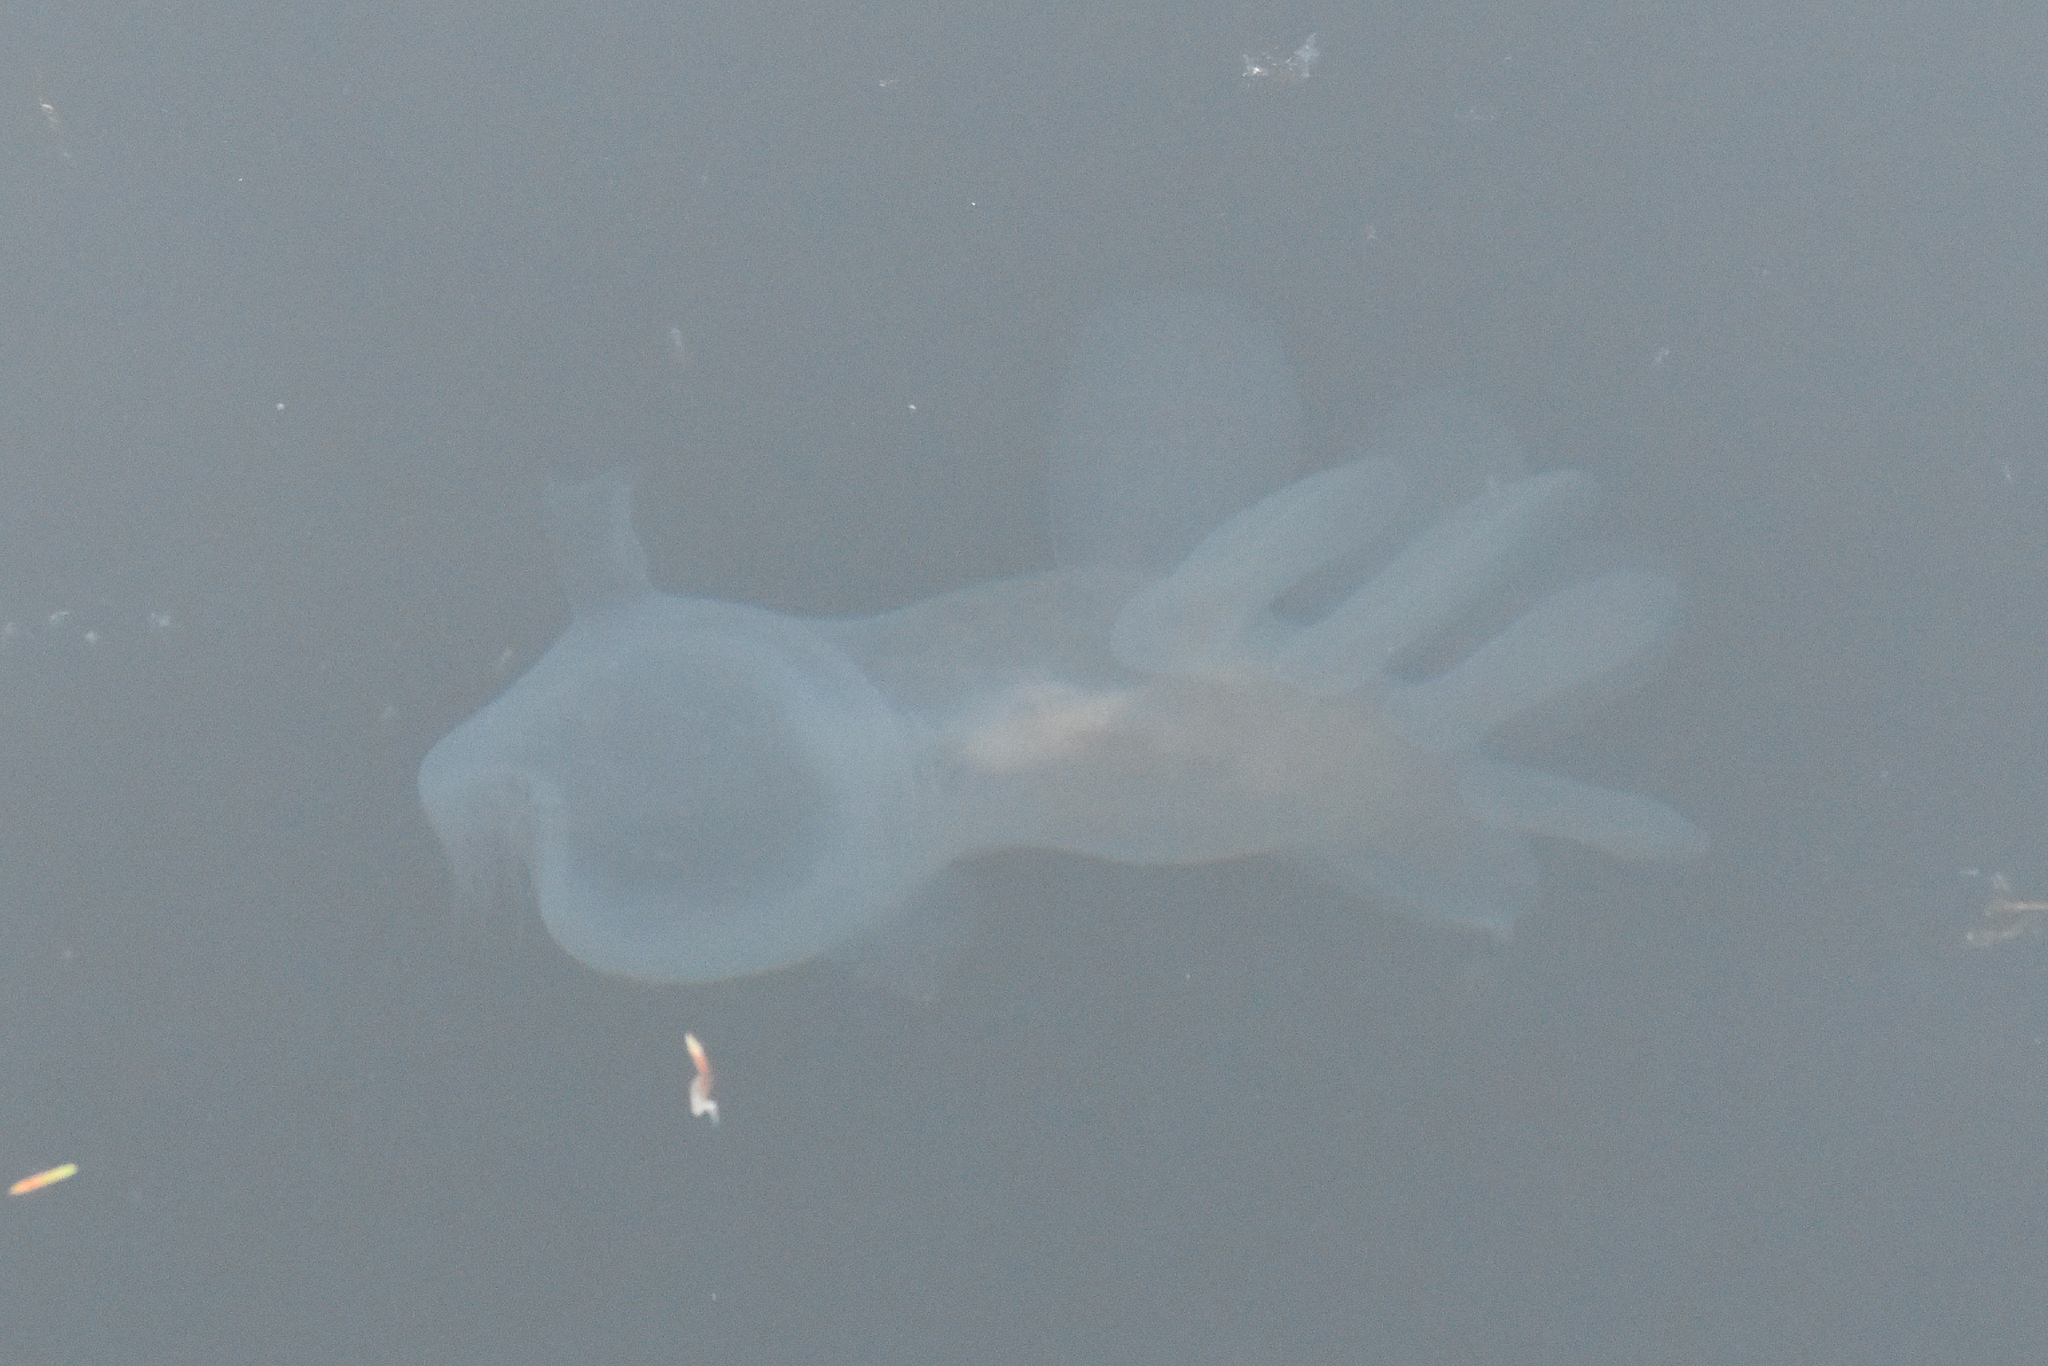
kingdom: Animalia
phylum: Mollusca
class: Gastropoda
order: Nudibranchia
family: Tethydidae
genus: Melibe
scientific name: Melibe leonina
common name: Lion nudibranch
